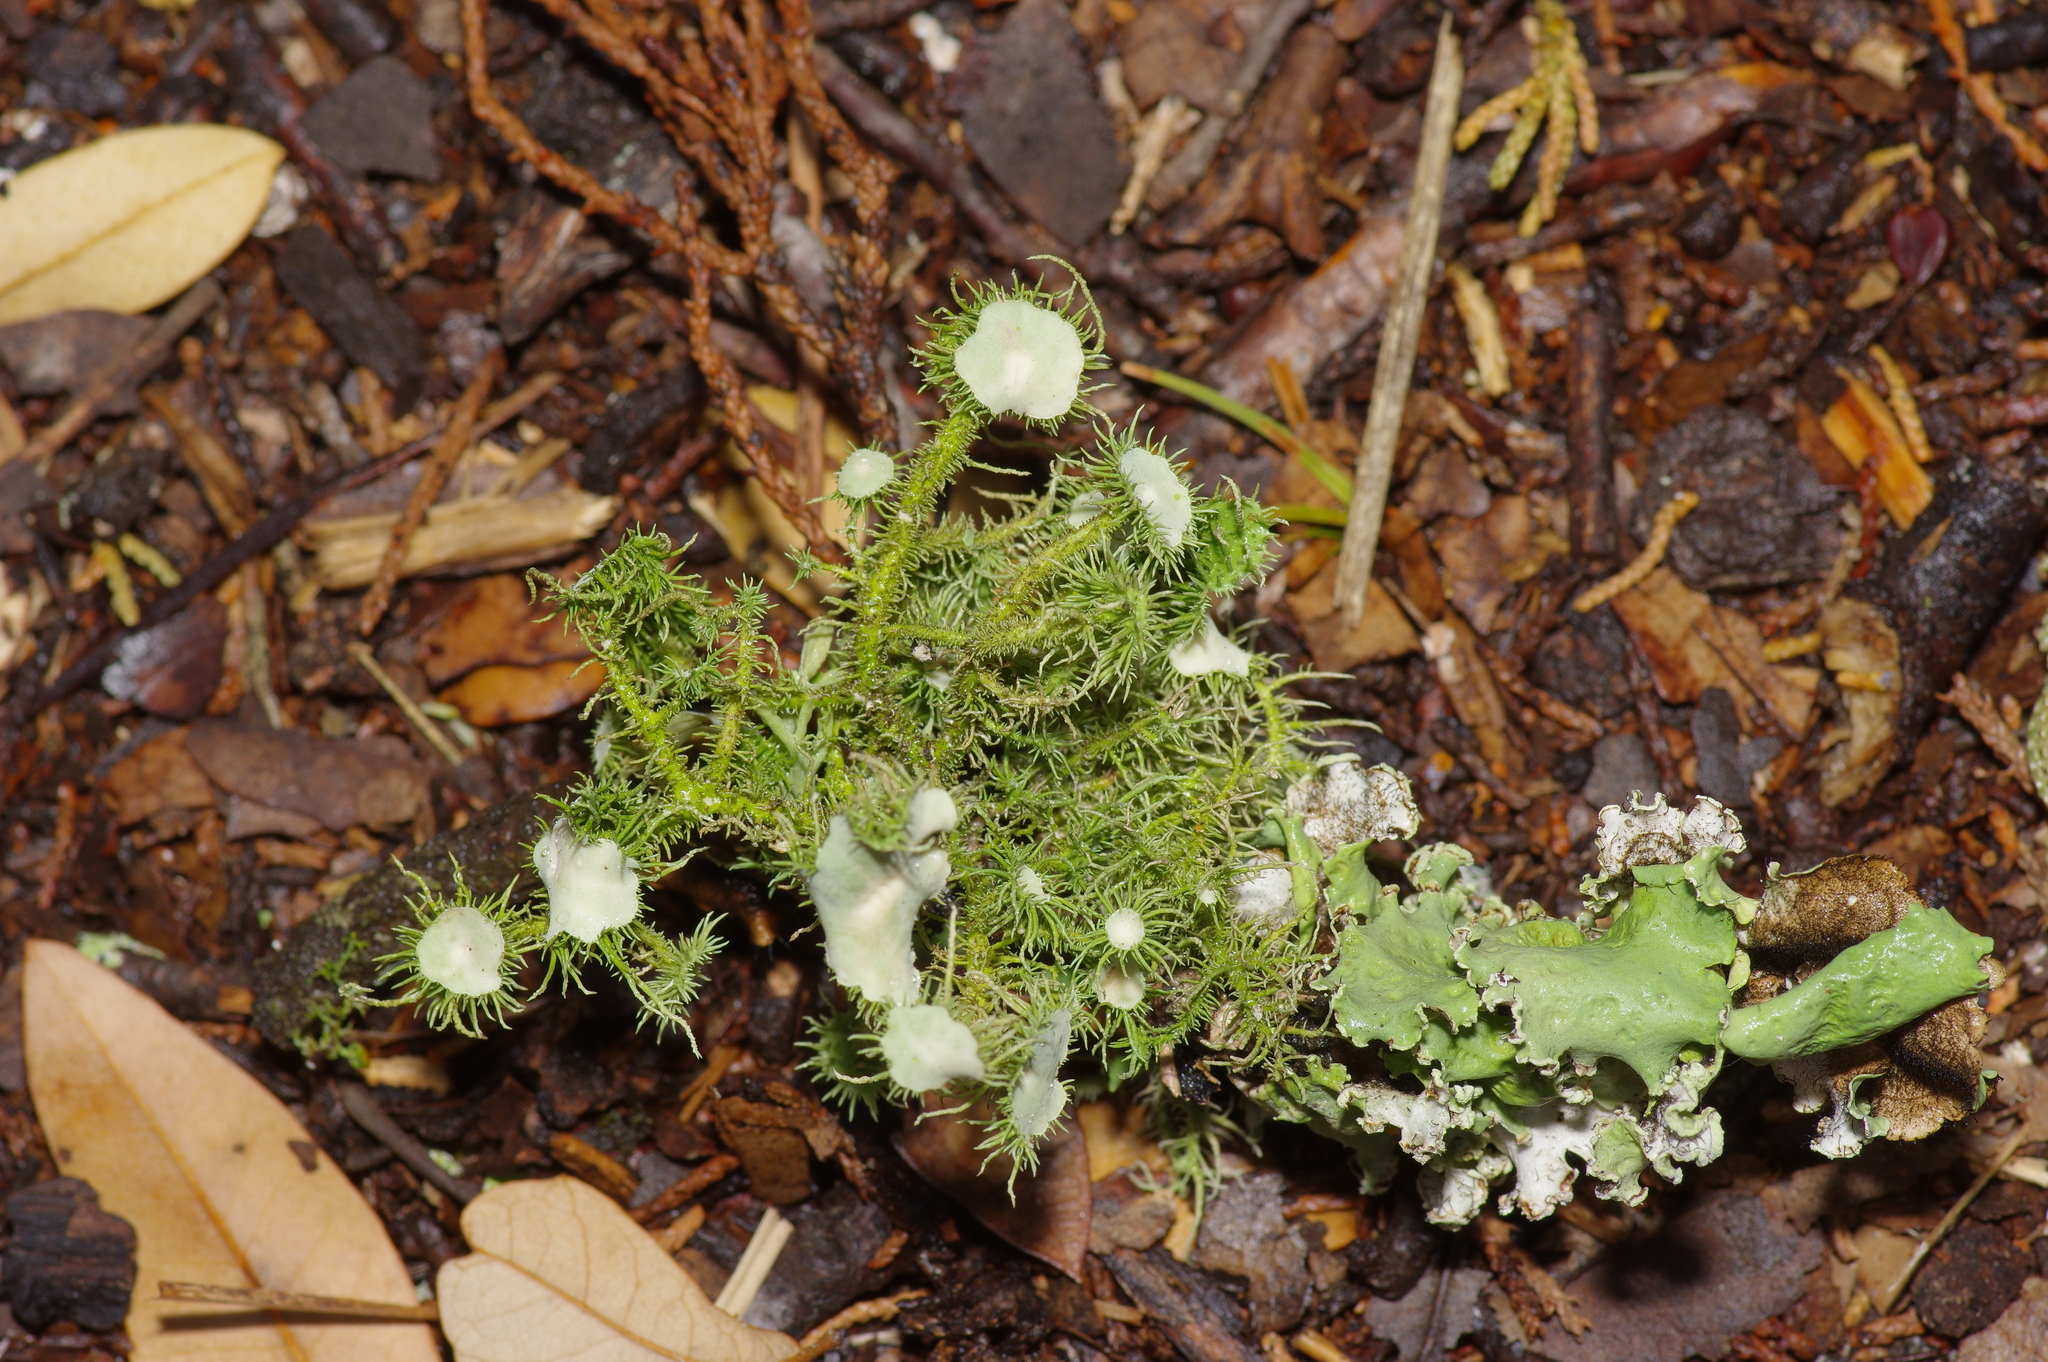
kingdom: Fungi
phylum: Ascomycota
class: Lecanoromycetes
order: Lecanorales
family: Parmeliaceae
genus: Usnea
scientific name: Usnea strigosa
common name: Bushy beard lichen
